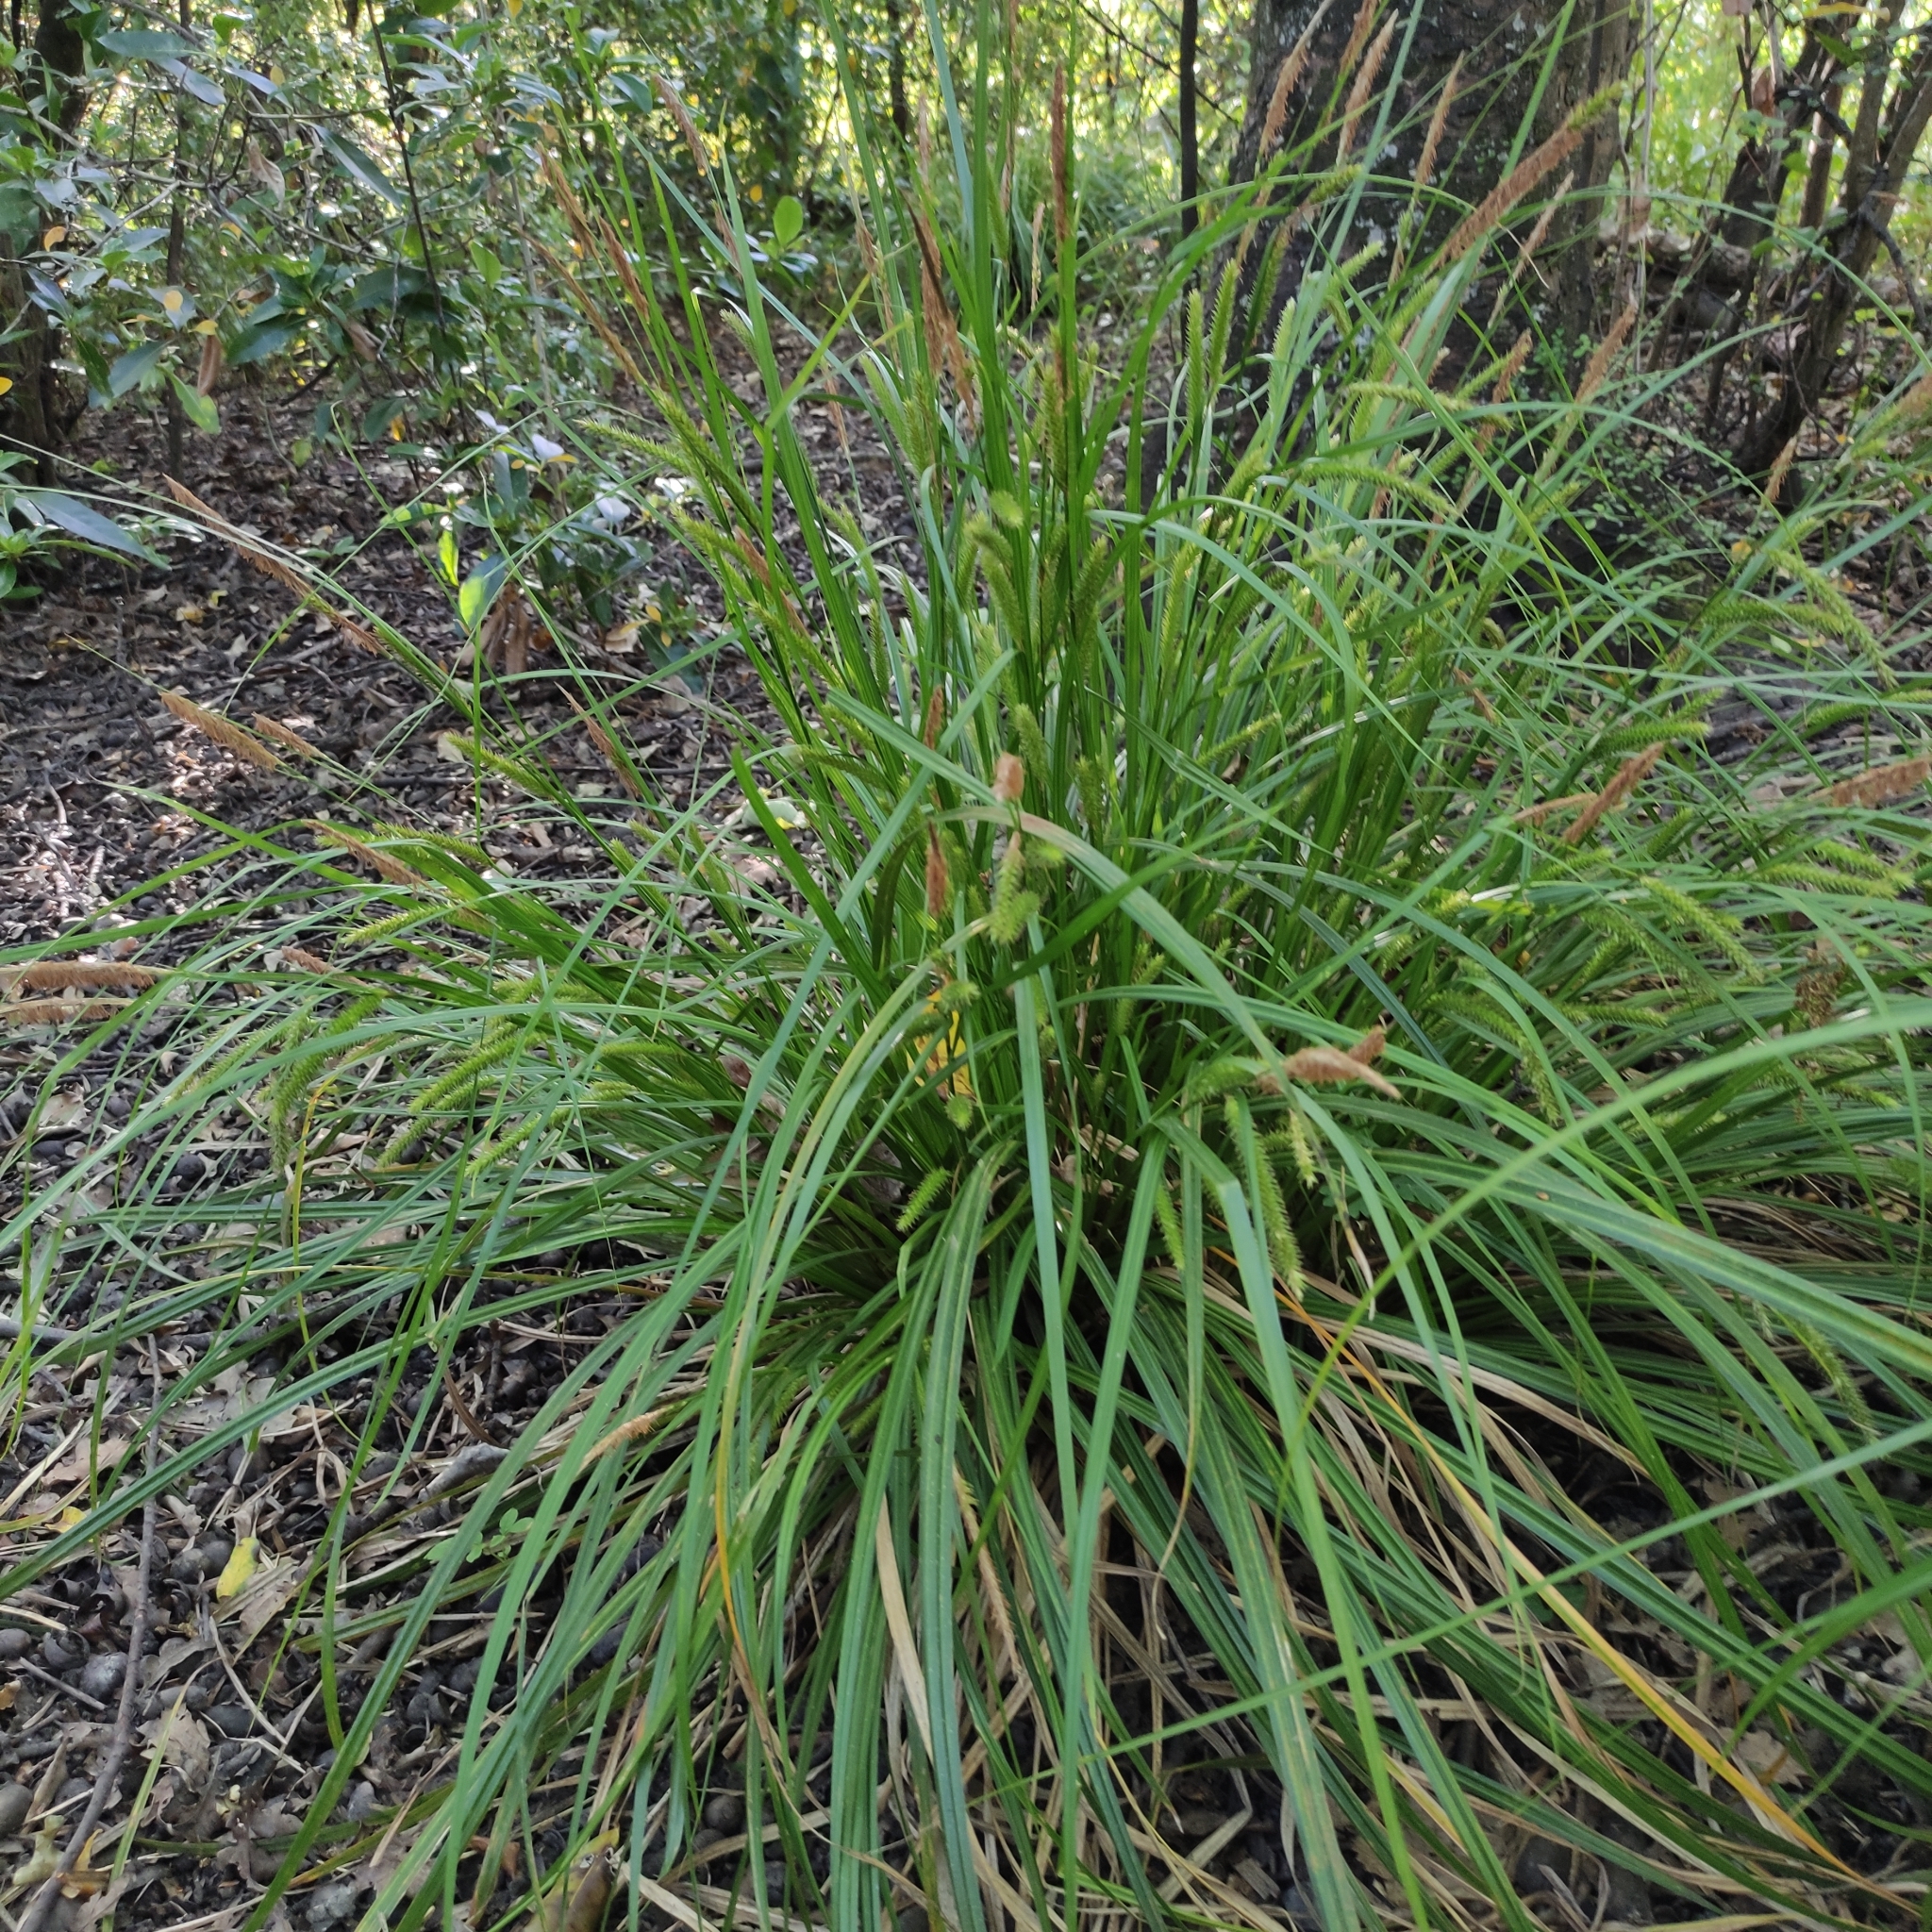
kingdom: Plantae
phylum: Tracheophyta
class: Liliopsida
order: Poales
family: Cyperaceae
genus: Carex
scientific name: Carex forsteri
